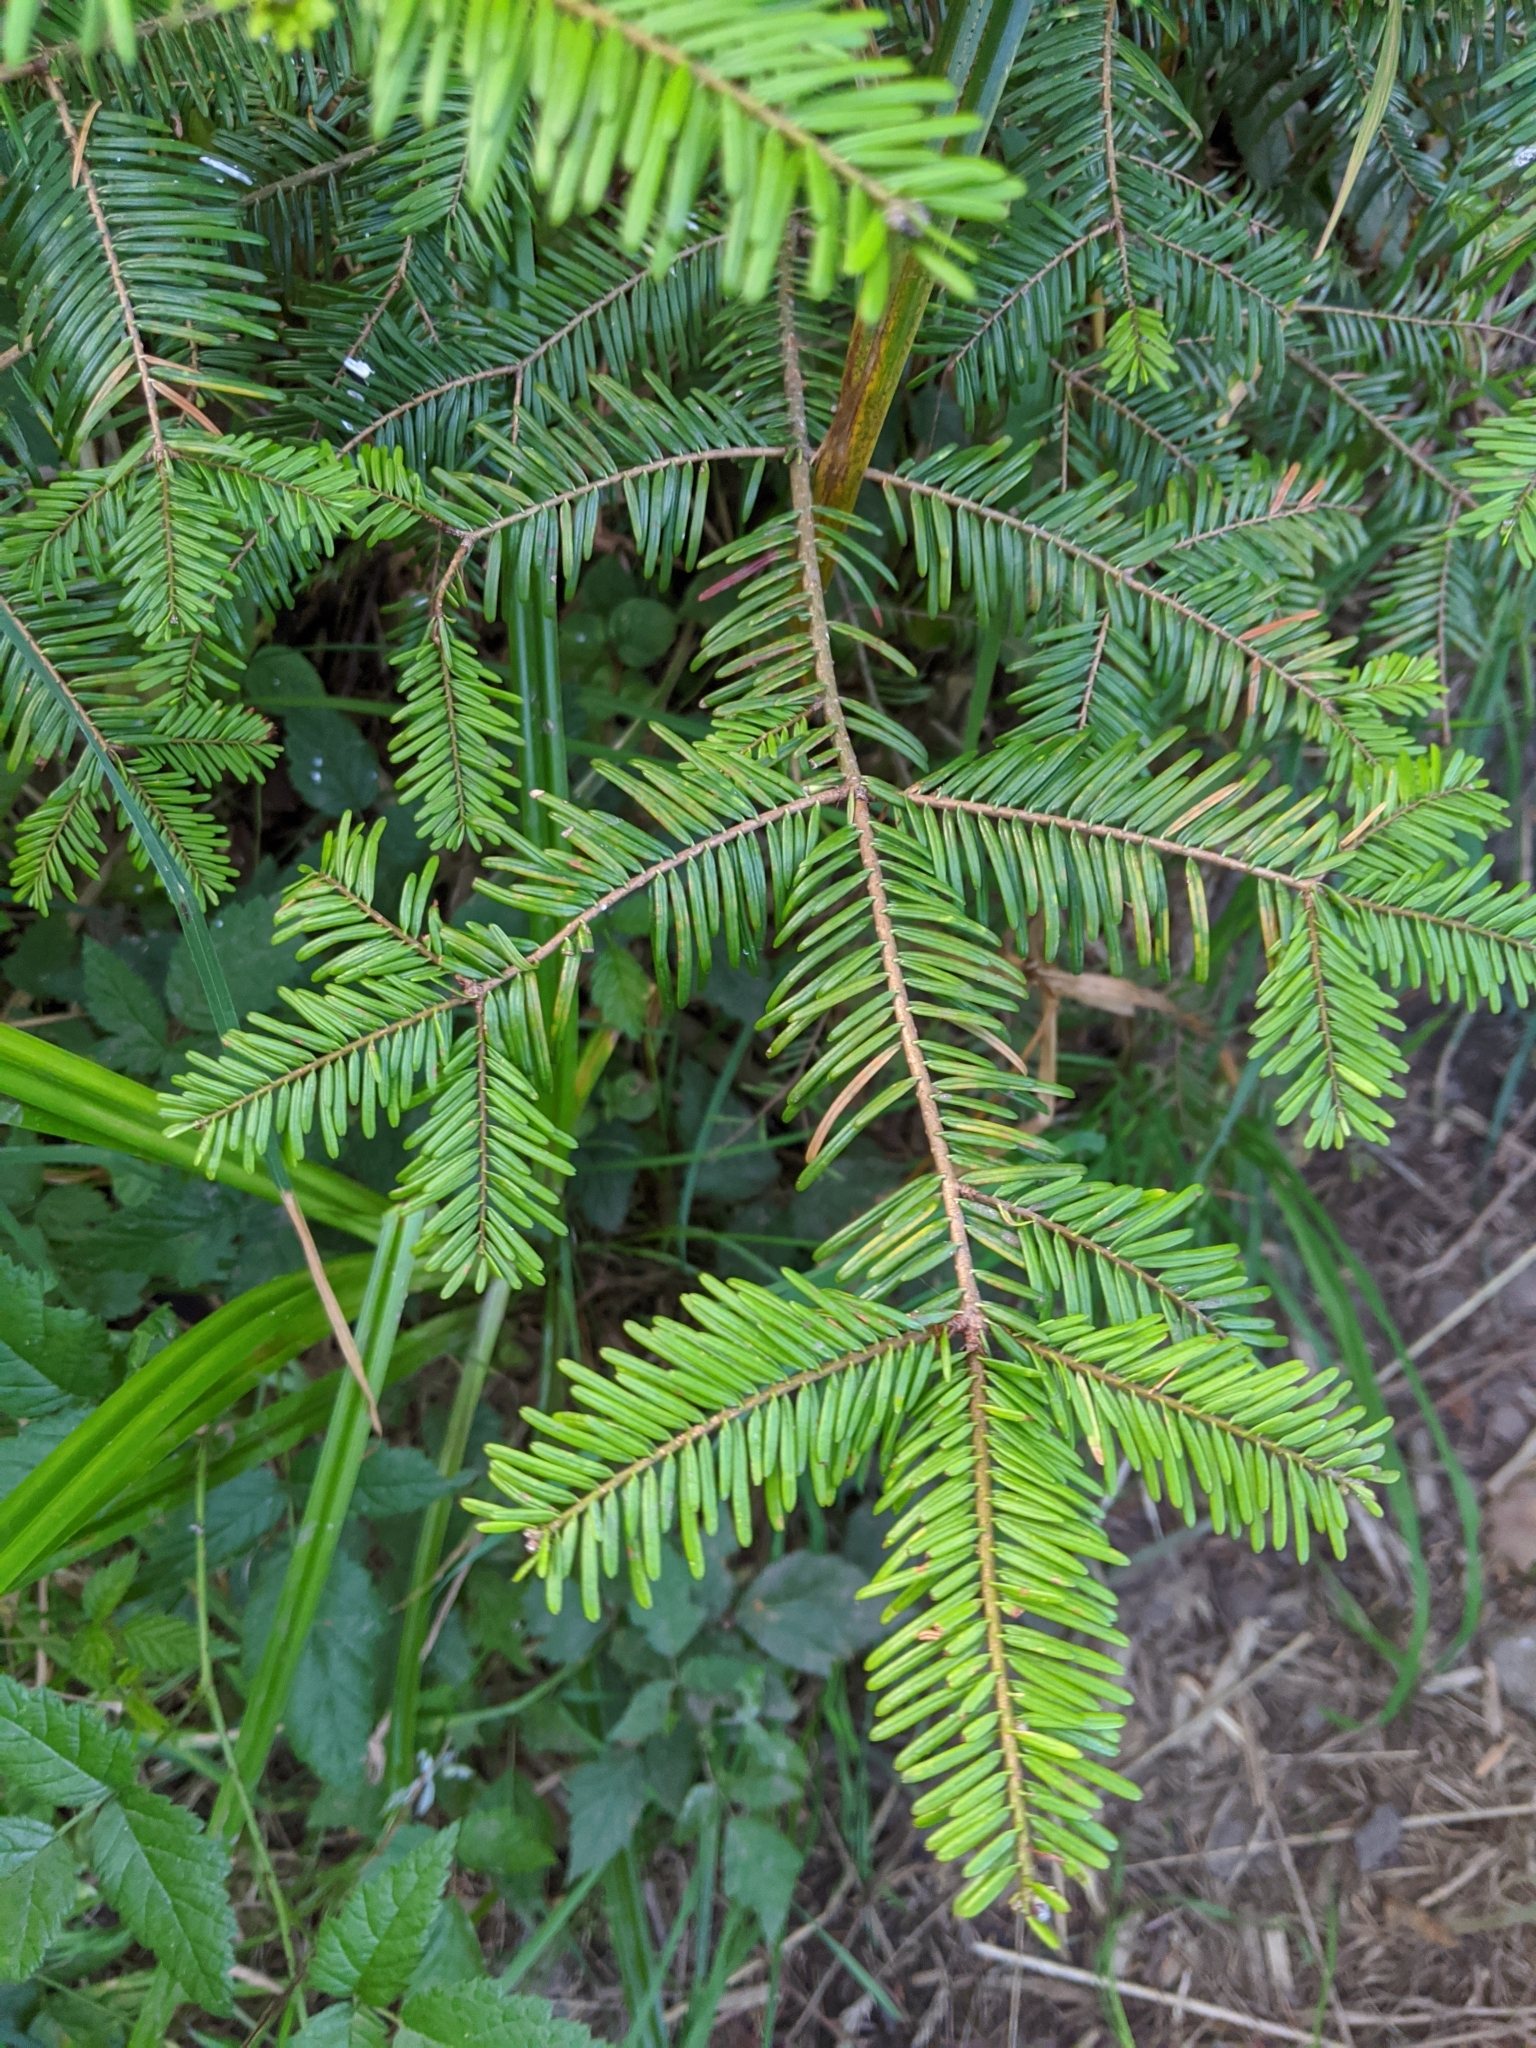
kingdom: Plantae
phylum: Tracheophyta
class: Pinopsida
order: Pinales
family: Pinaceae
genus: Abies
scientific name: Abies grandis
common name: Giant fir
